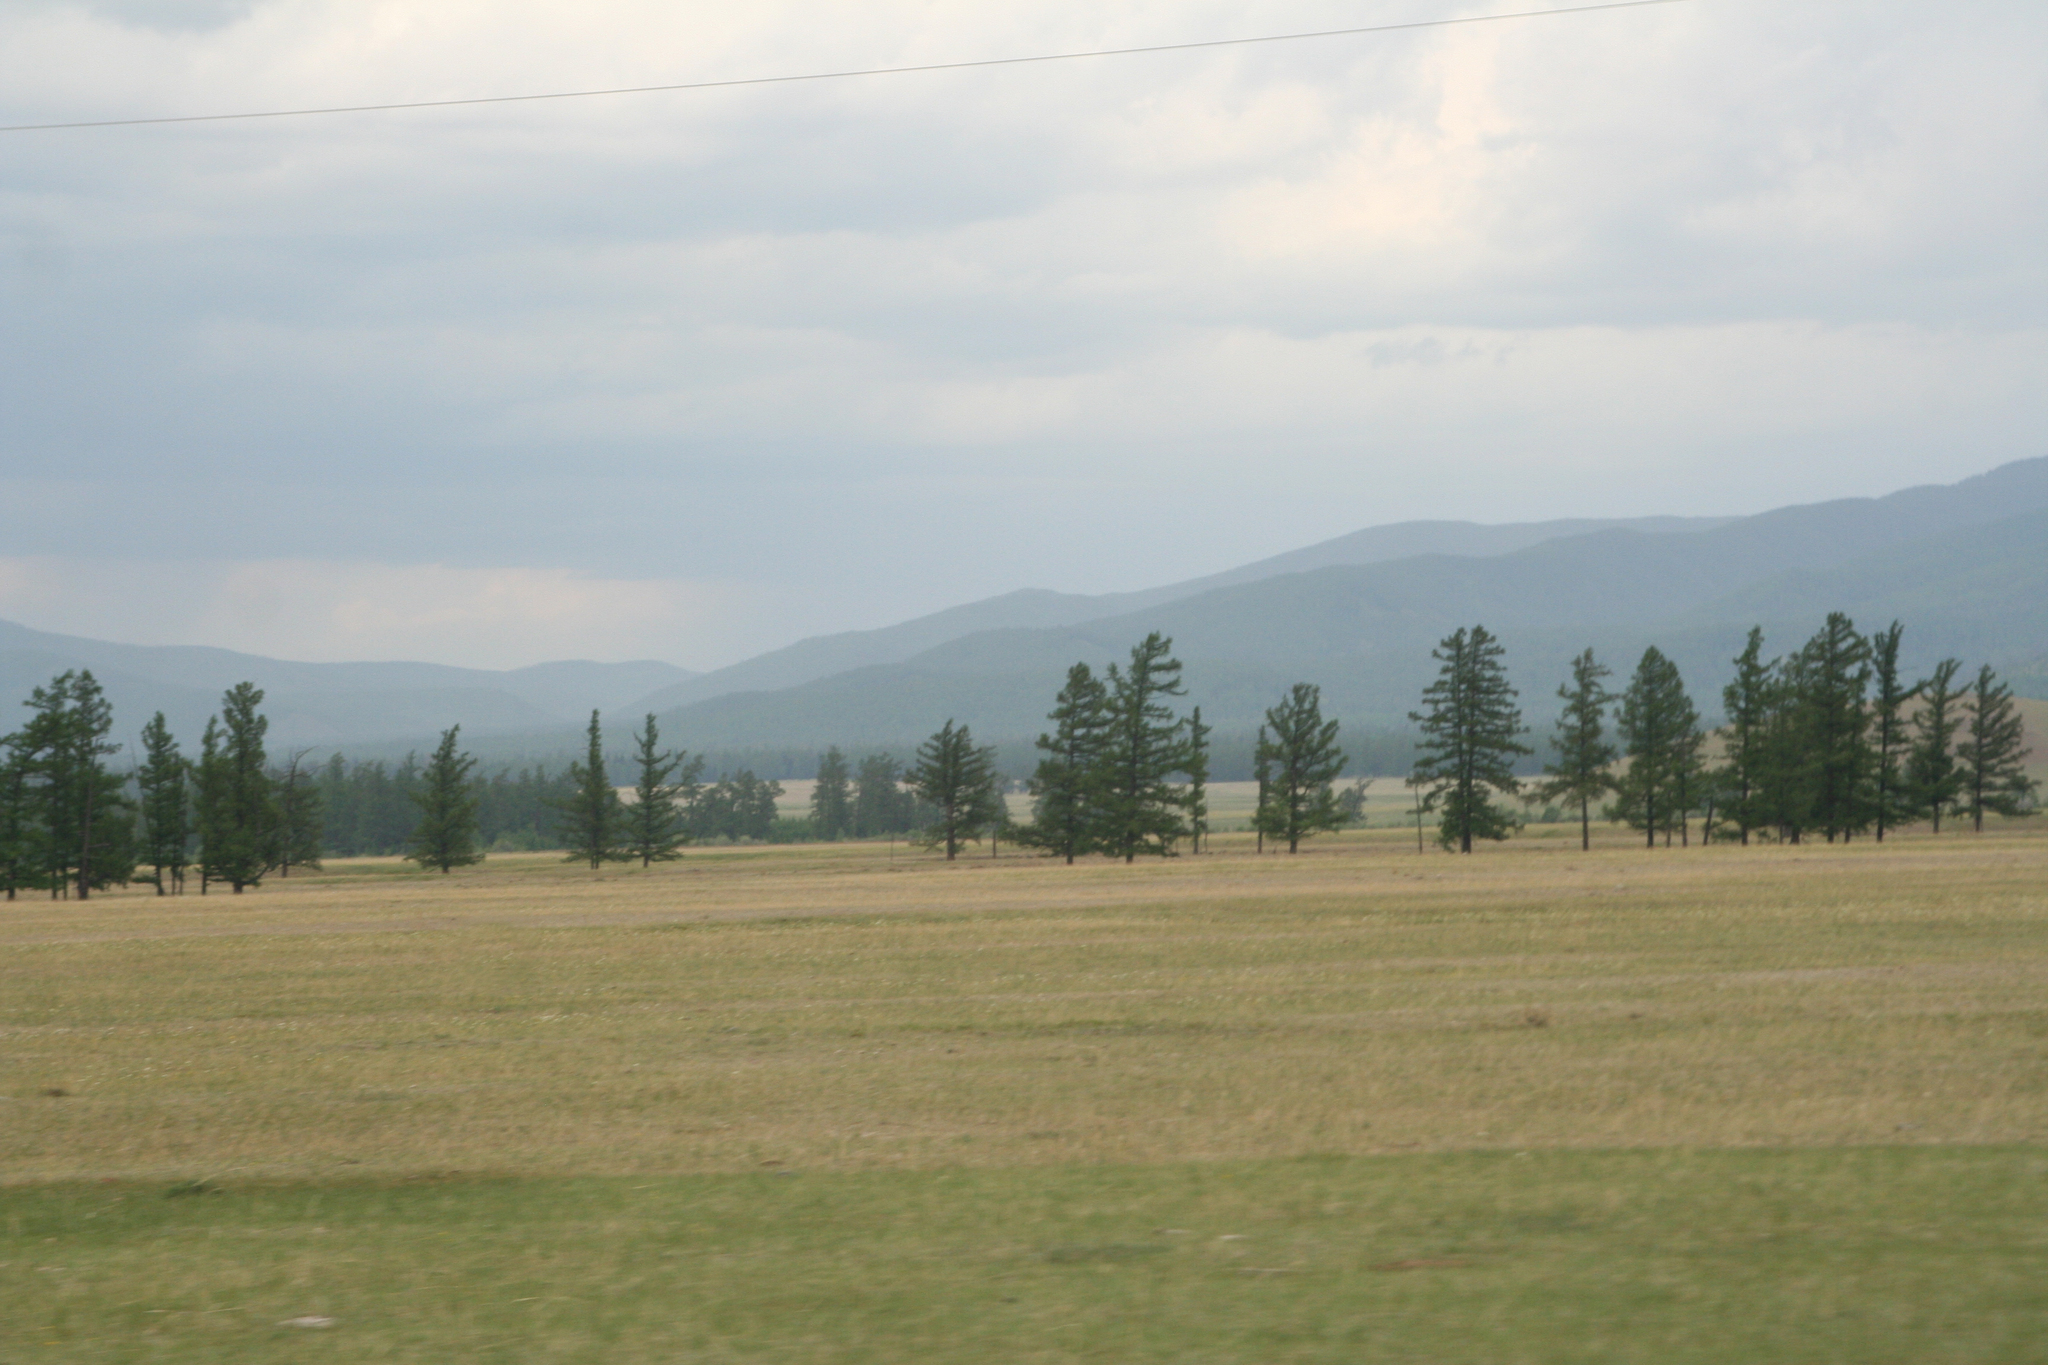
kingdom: Plantae
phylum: Tracheophyta
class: Pinopsida
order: Pinales
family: Pinaceae
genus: Larix
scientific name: Larix sibirica
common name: Siberian larch
